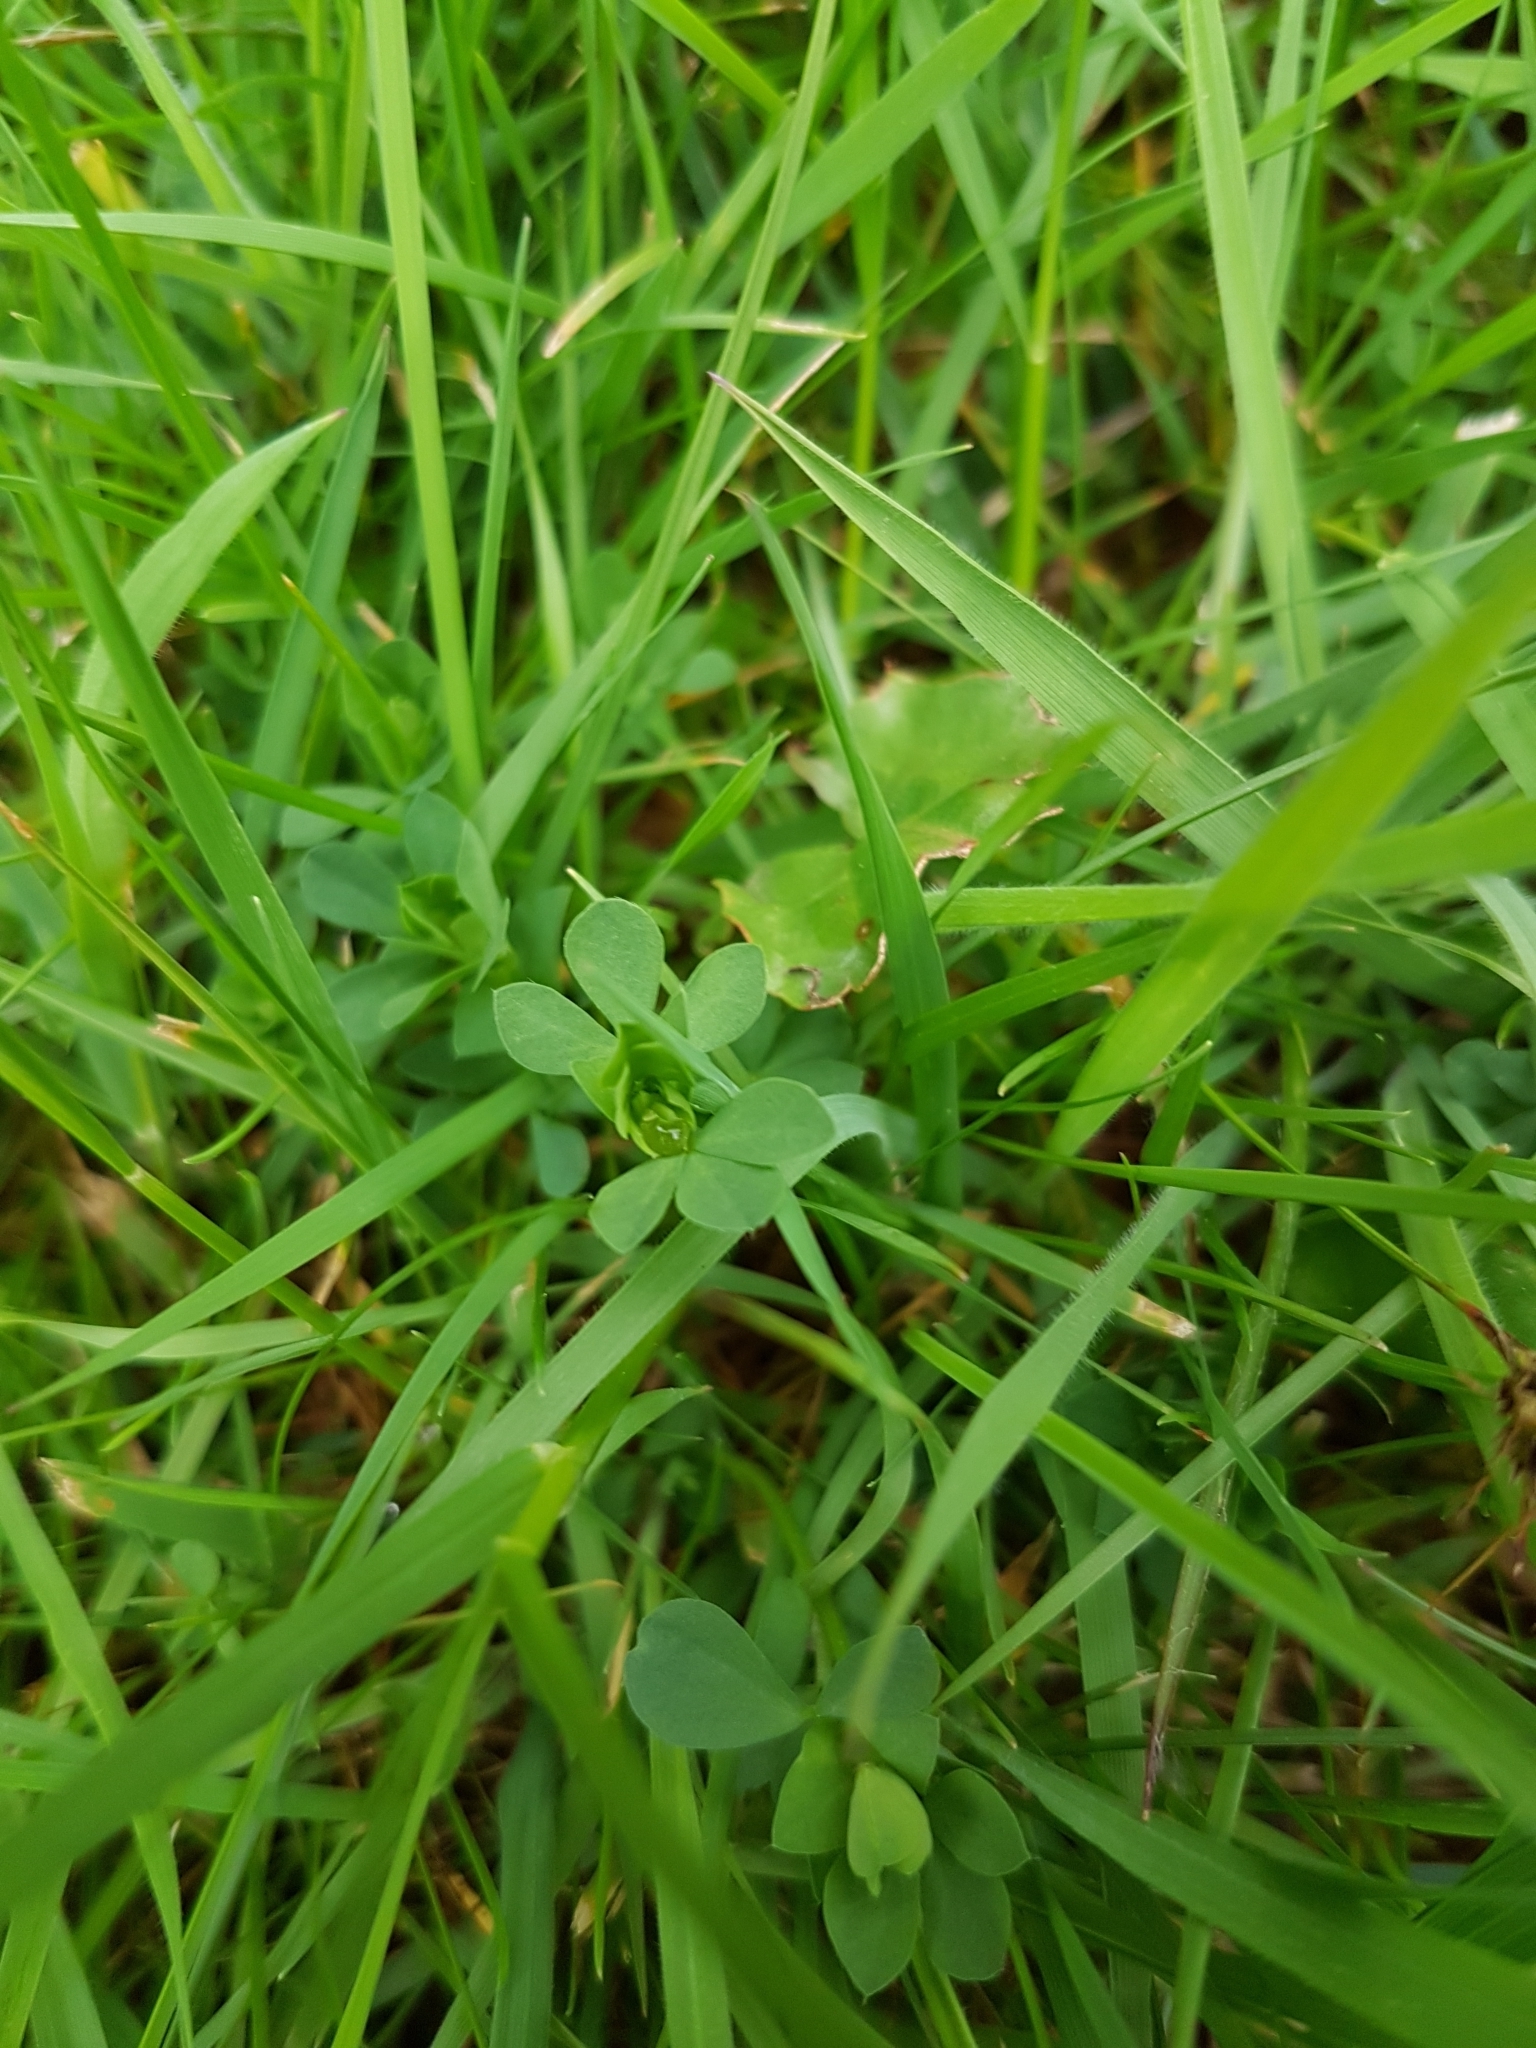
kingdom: Plantae
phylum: Tracheophyta
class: Magnoliopsida
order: Fabales
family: Fabaceae
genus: Lotus
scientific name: Lotus corniculatus
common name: Common bird's-foot-trefoil
